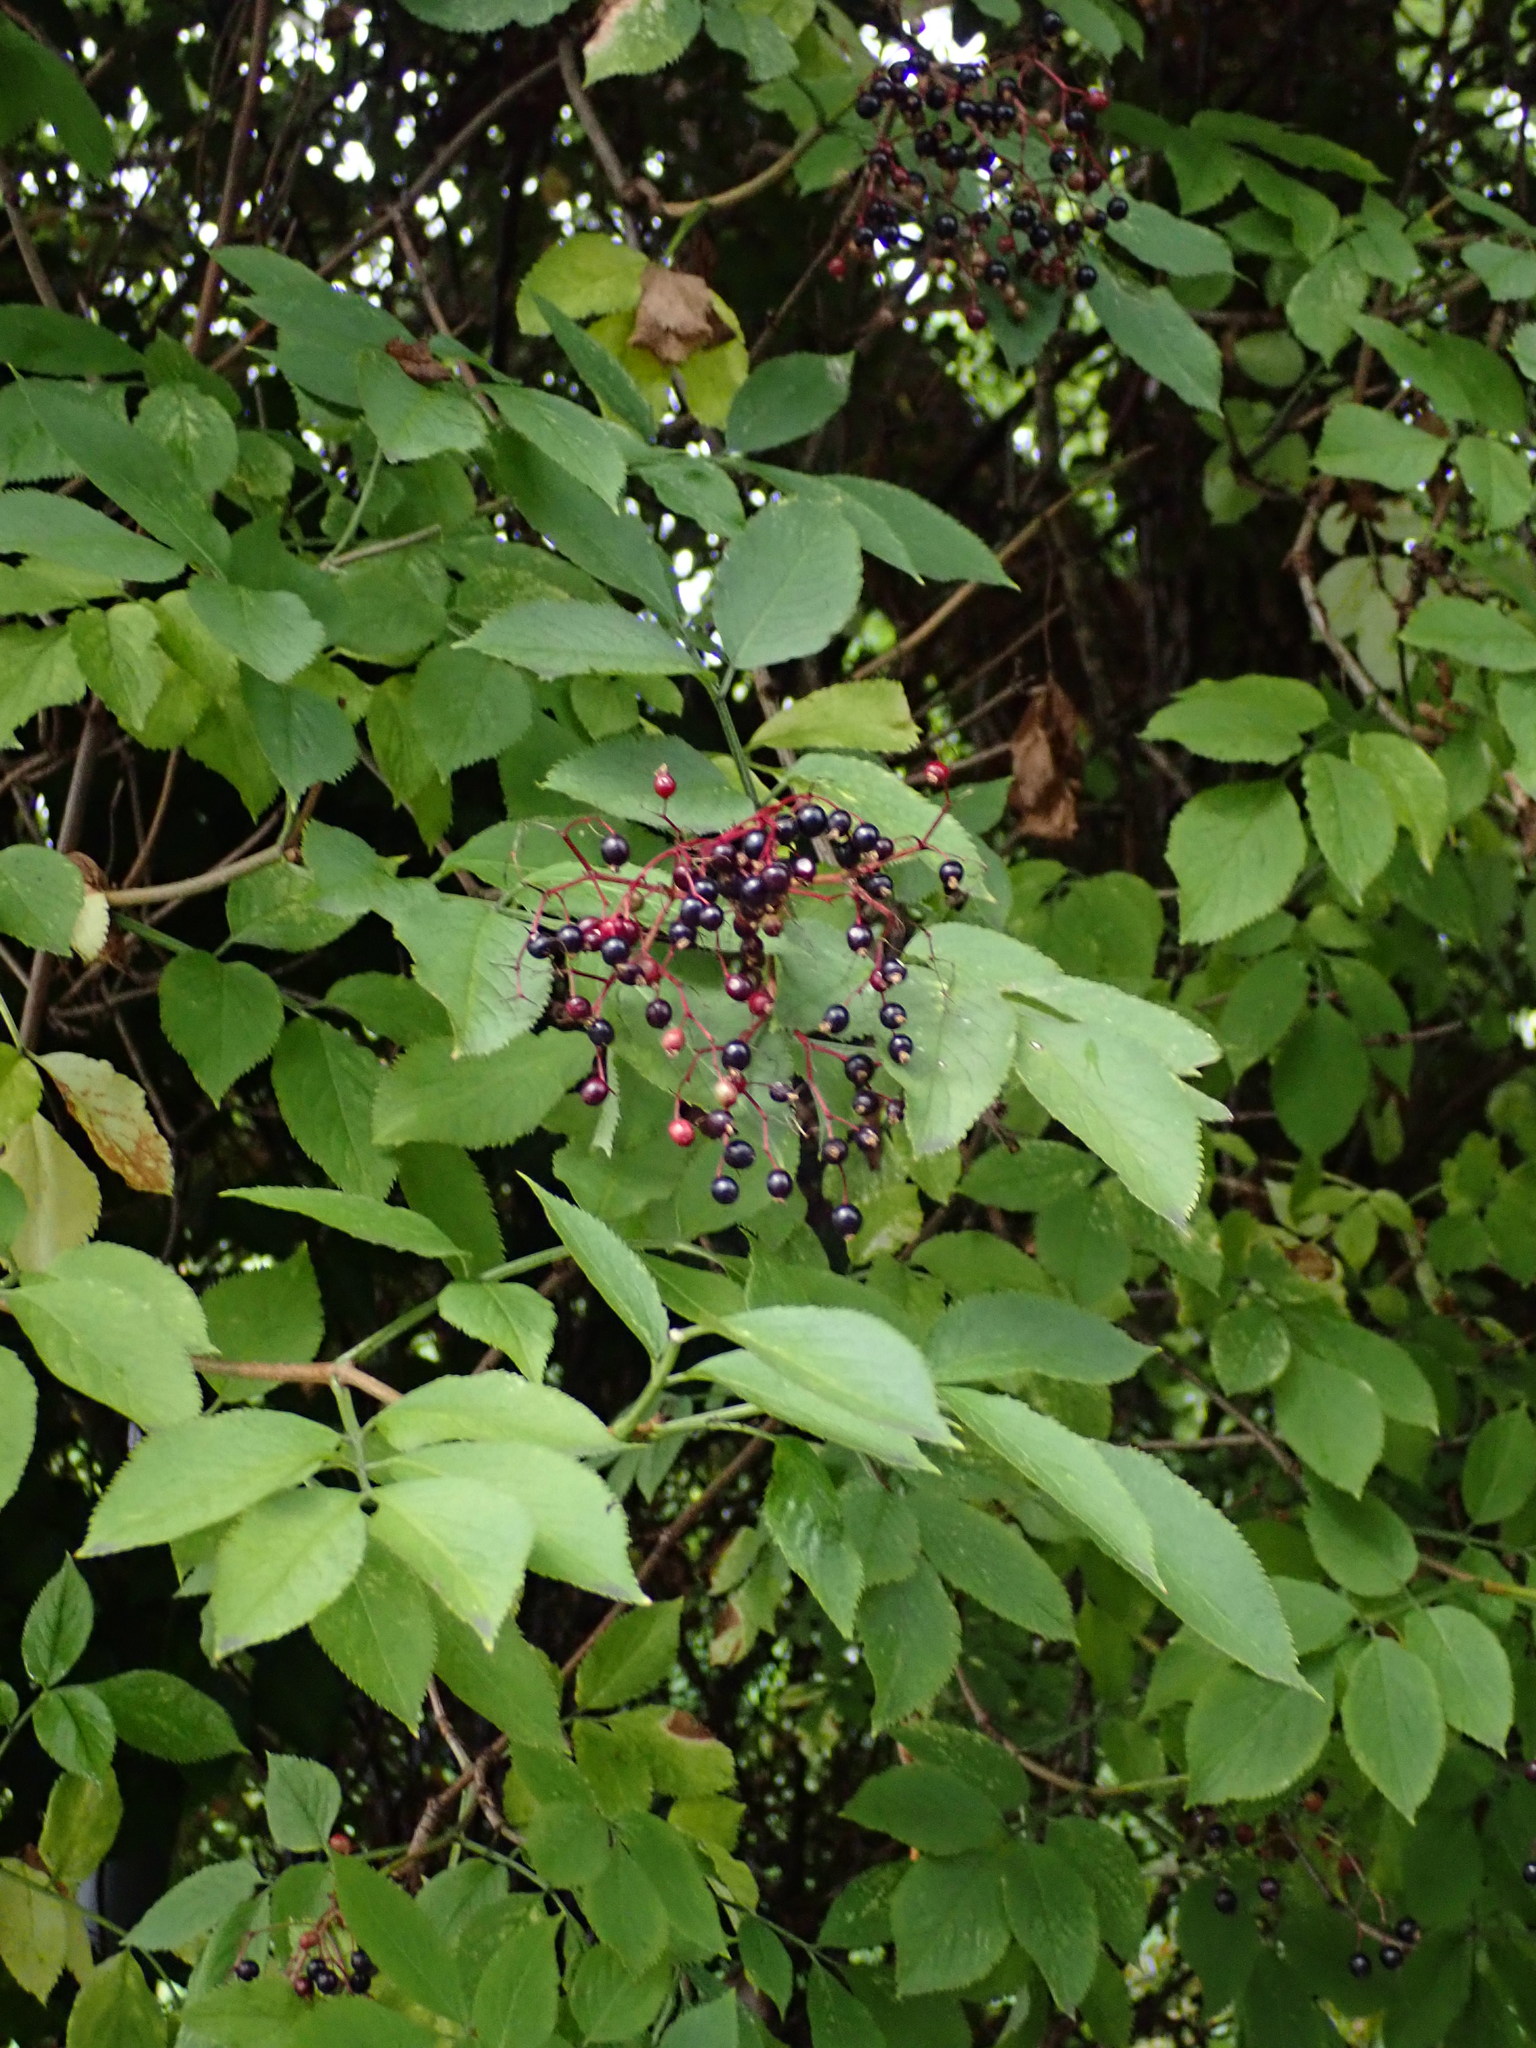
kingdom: Plantae
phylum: Tracheophyta
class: Magnoliopsida
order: Dipsacales
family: Viburnaceae
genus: Sambucus
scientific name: Sambucus nigra
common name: Elder
